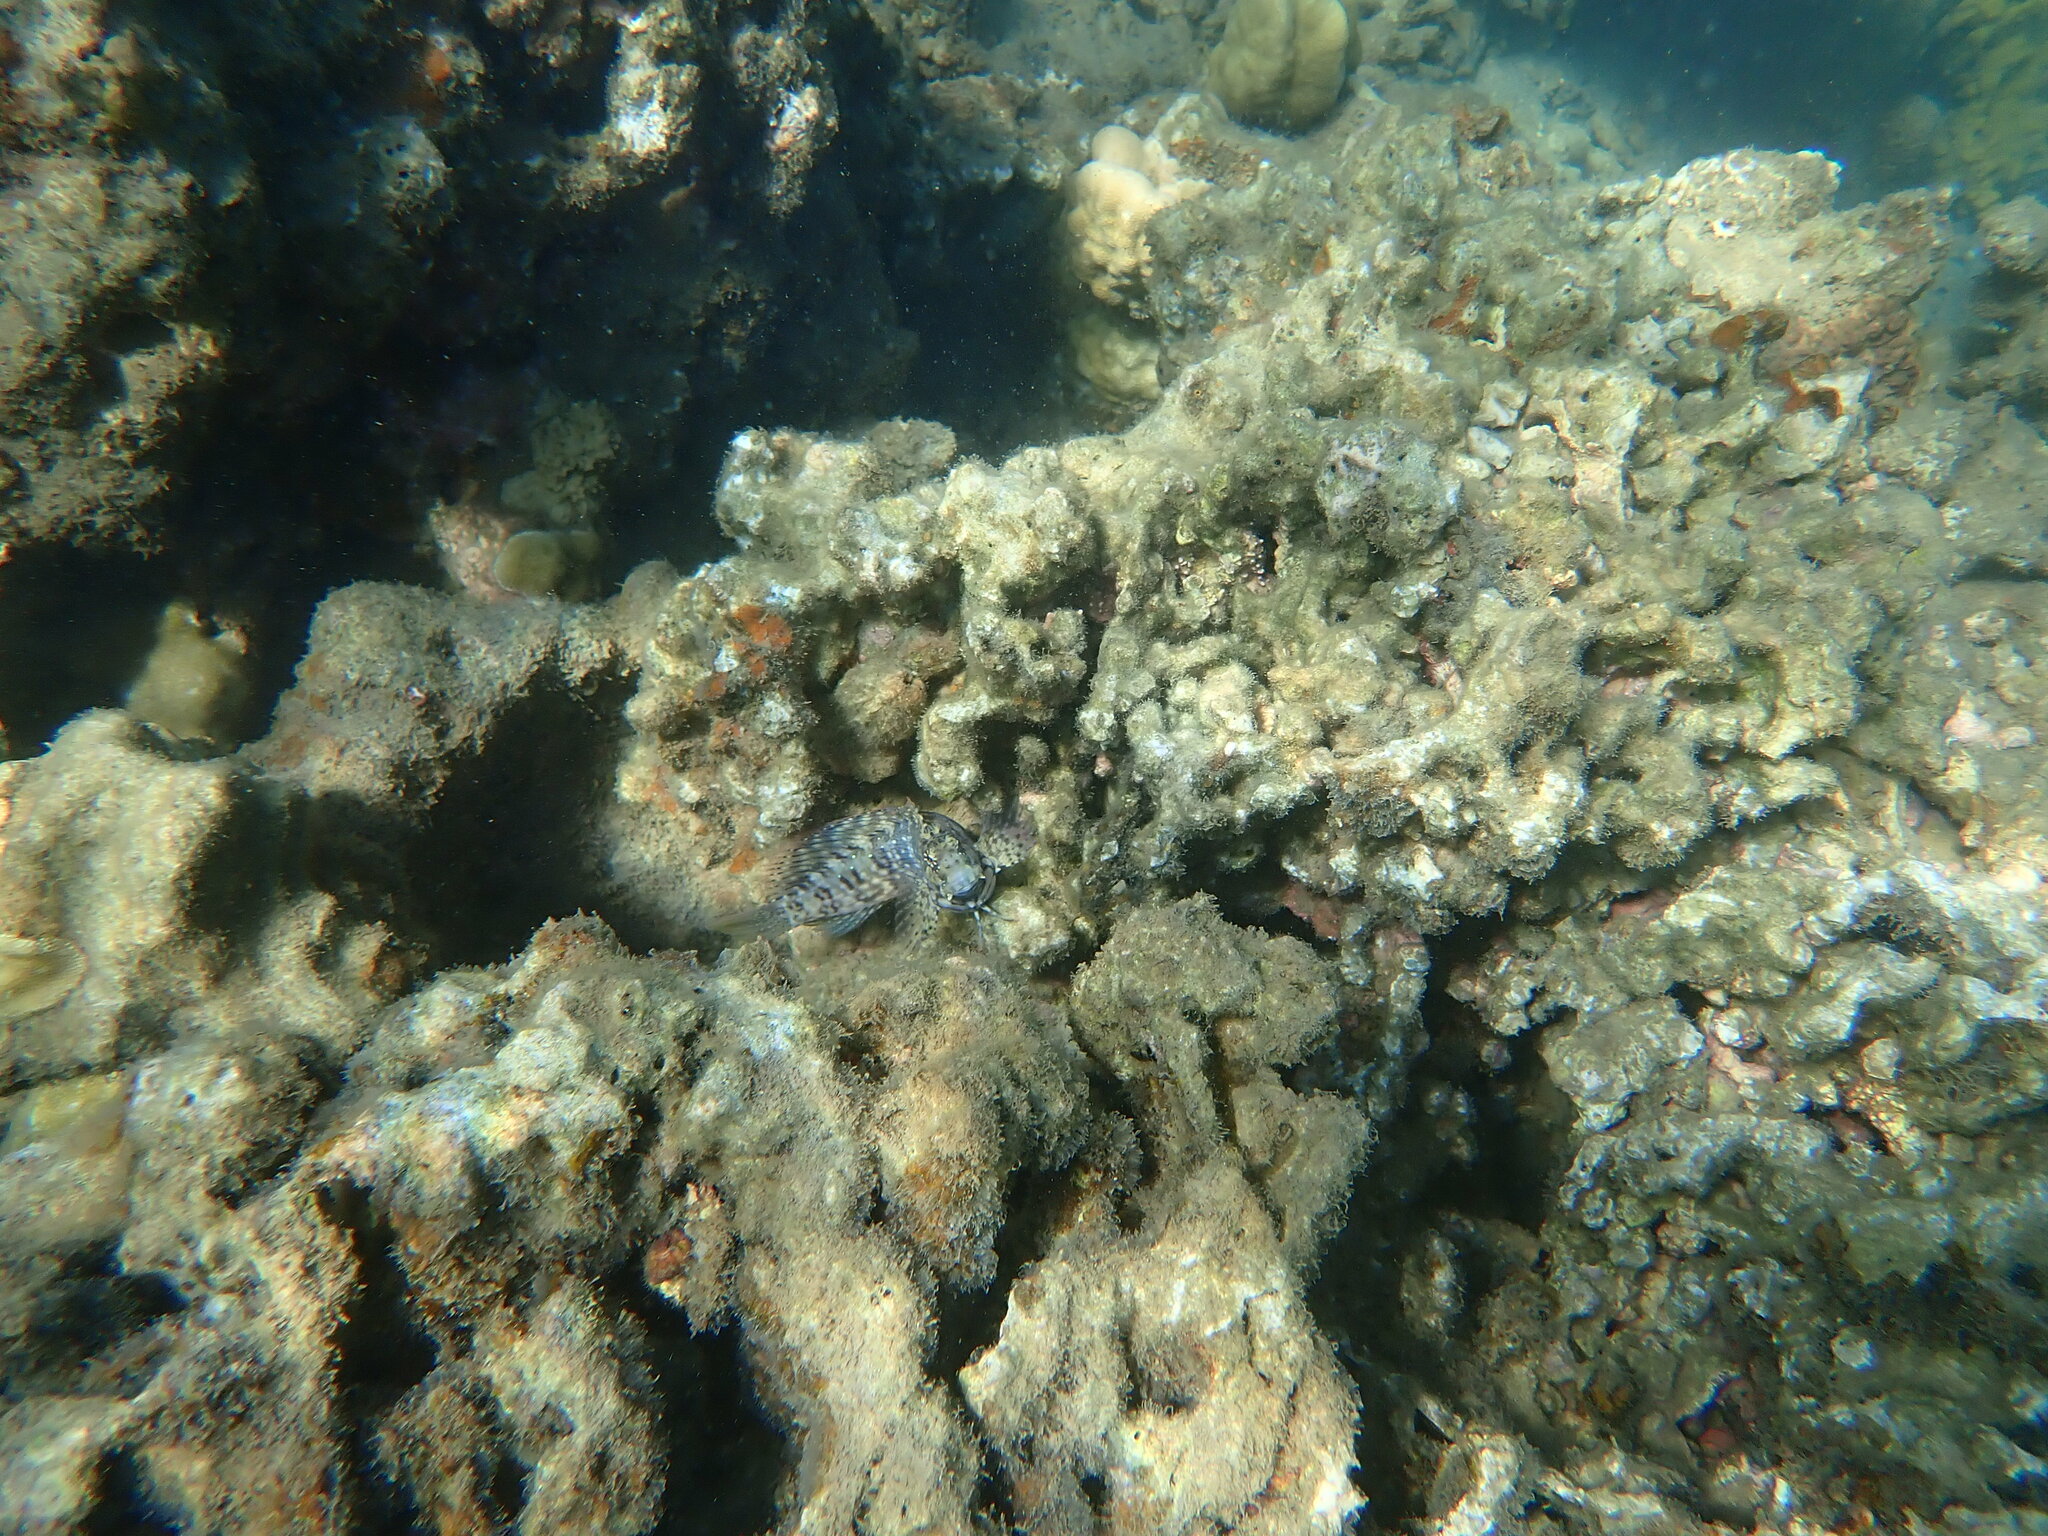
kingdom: Animalia
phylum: Chordata
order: Perciformes
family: Blenniidae
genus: Salarias
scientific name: Salarias fasciatus
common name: Jewelled blenny
